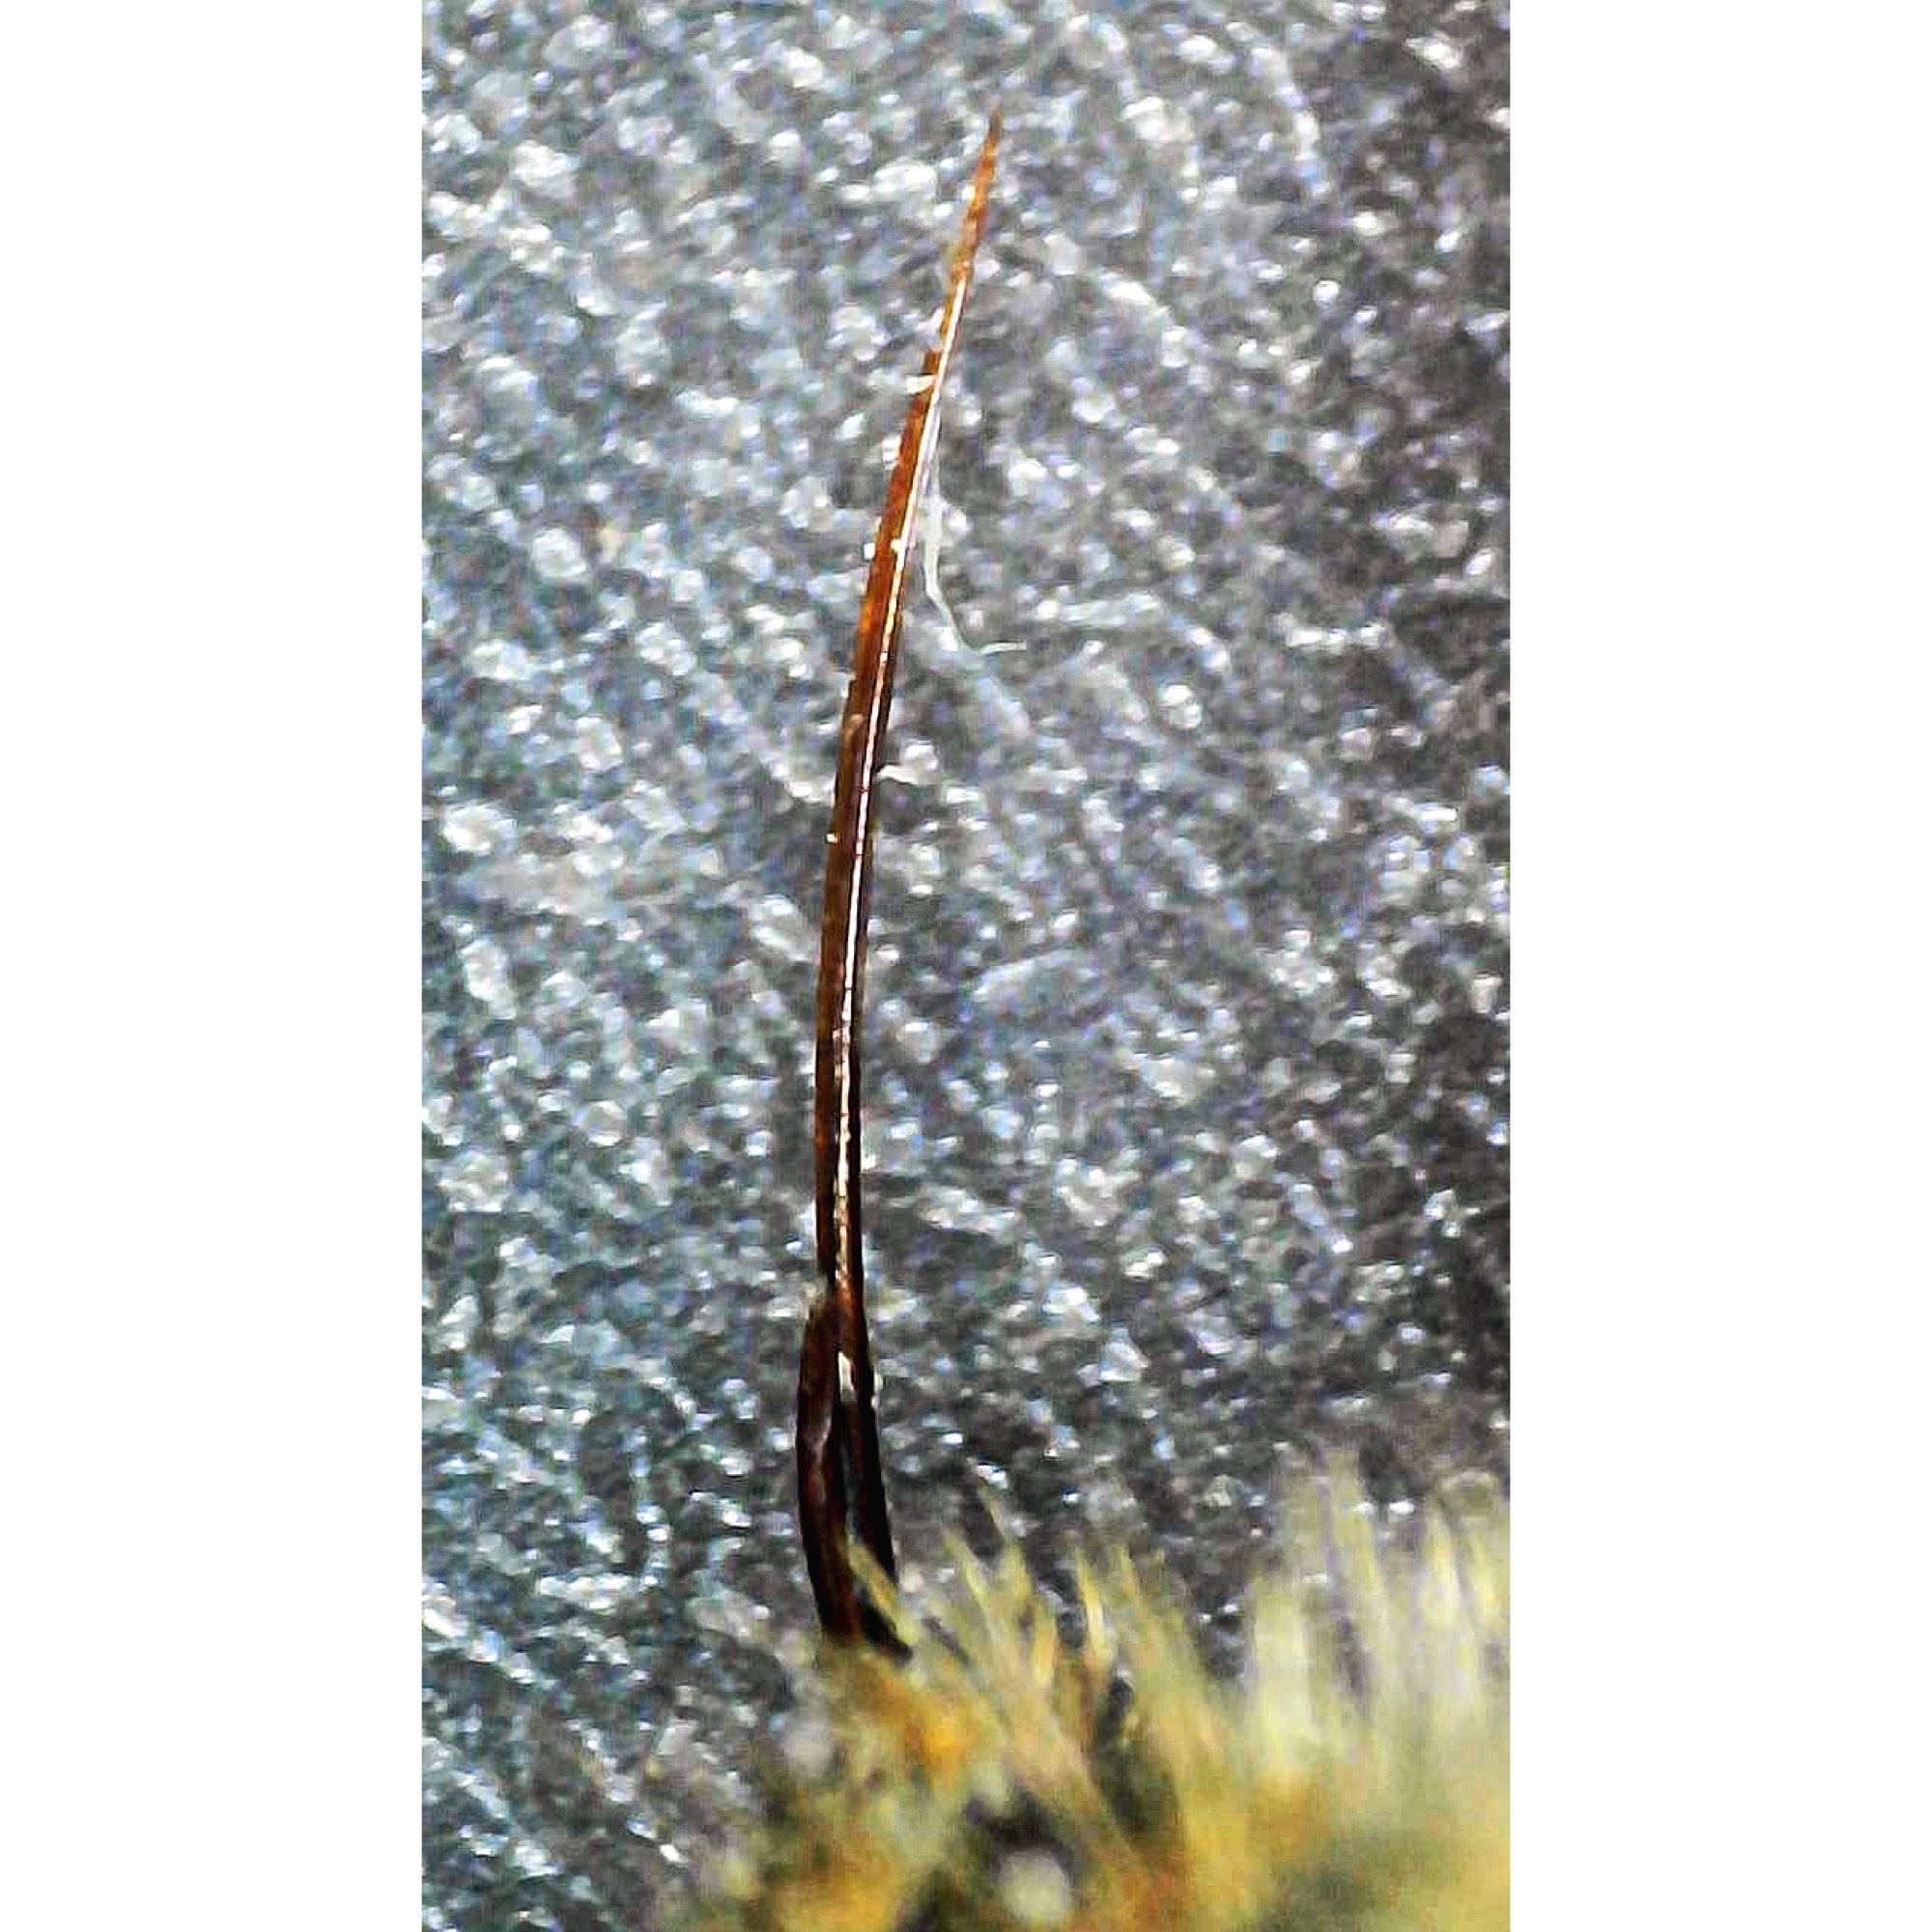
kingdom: Animalia
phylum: Arthropoda
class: Insecta
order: Hymenoptera
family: Mutillidae
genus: Dasymutilla
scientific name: Dasymutilla
